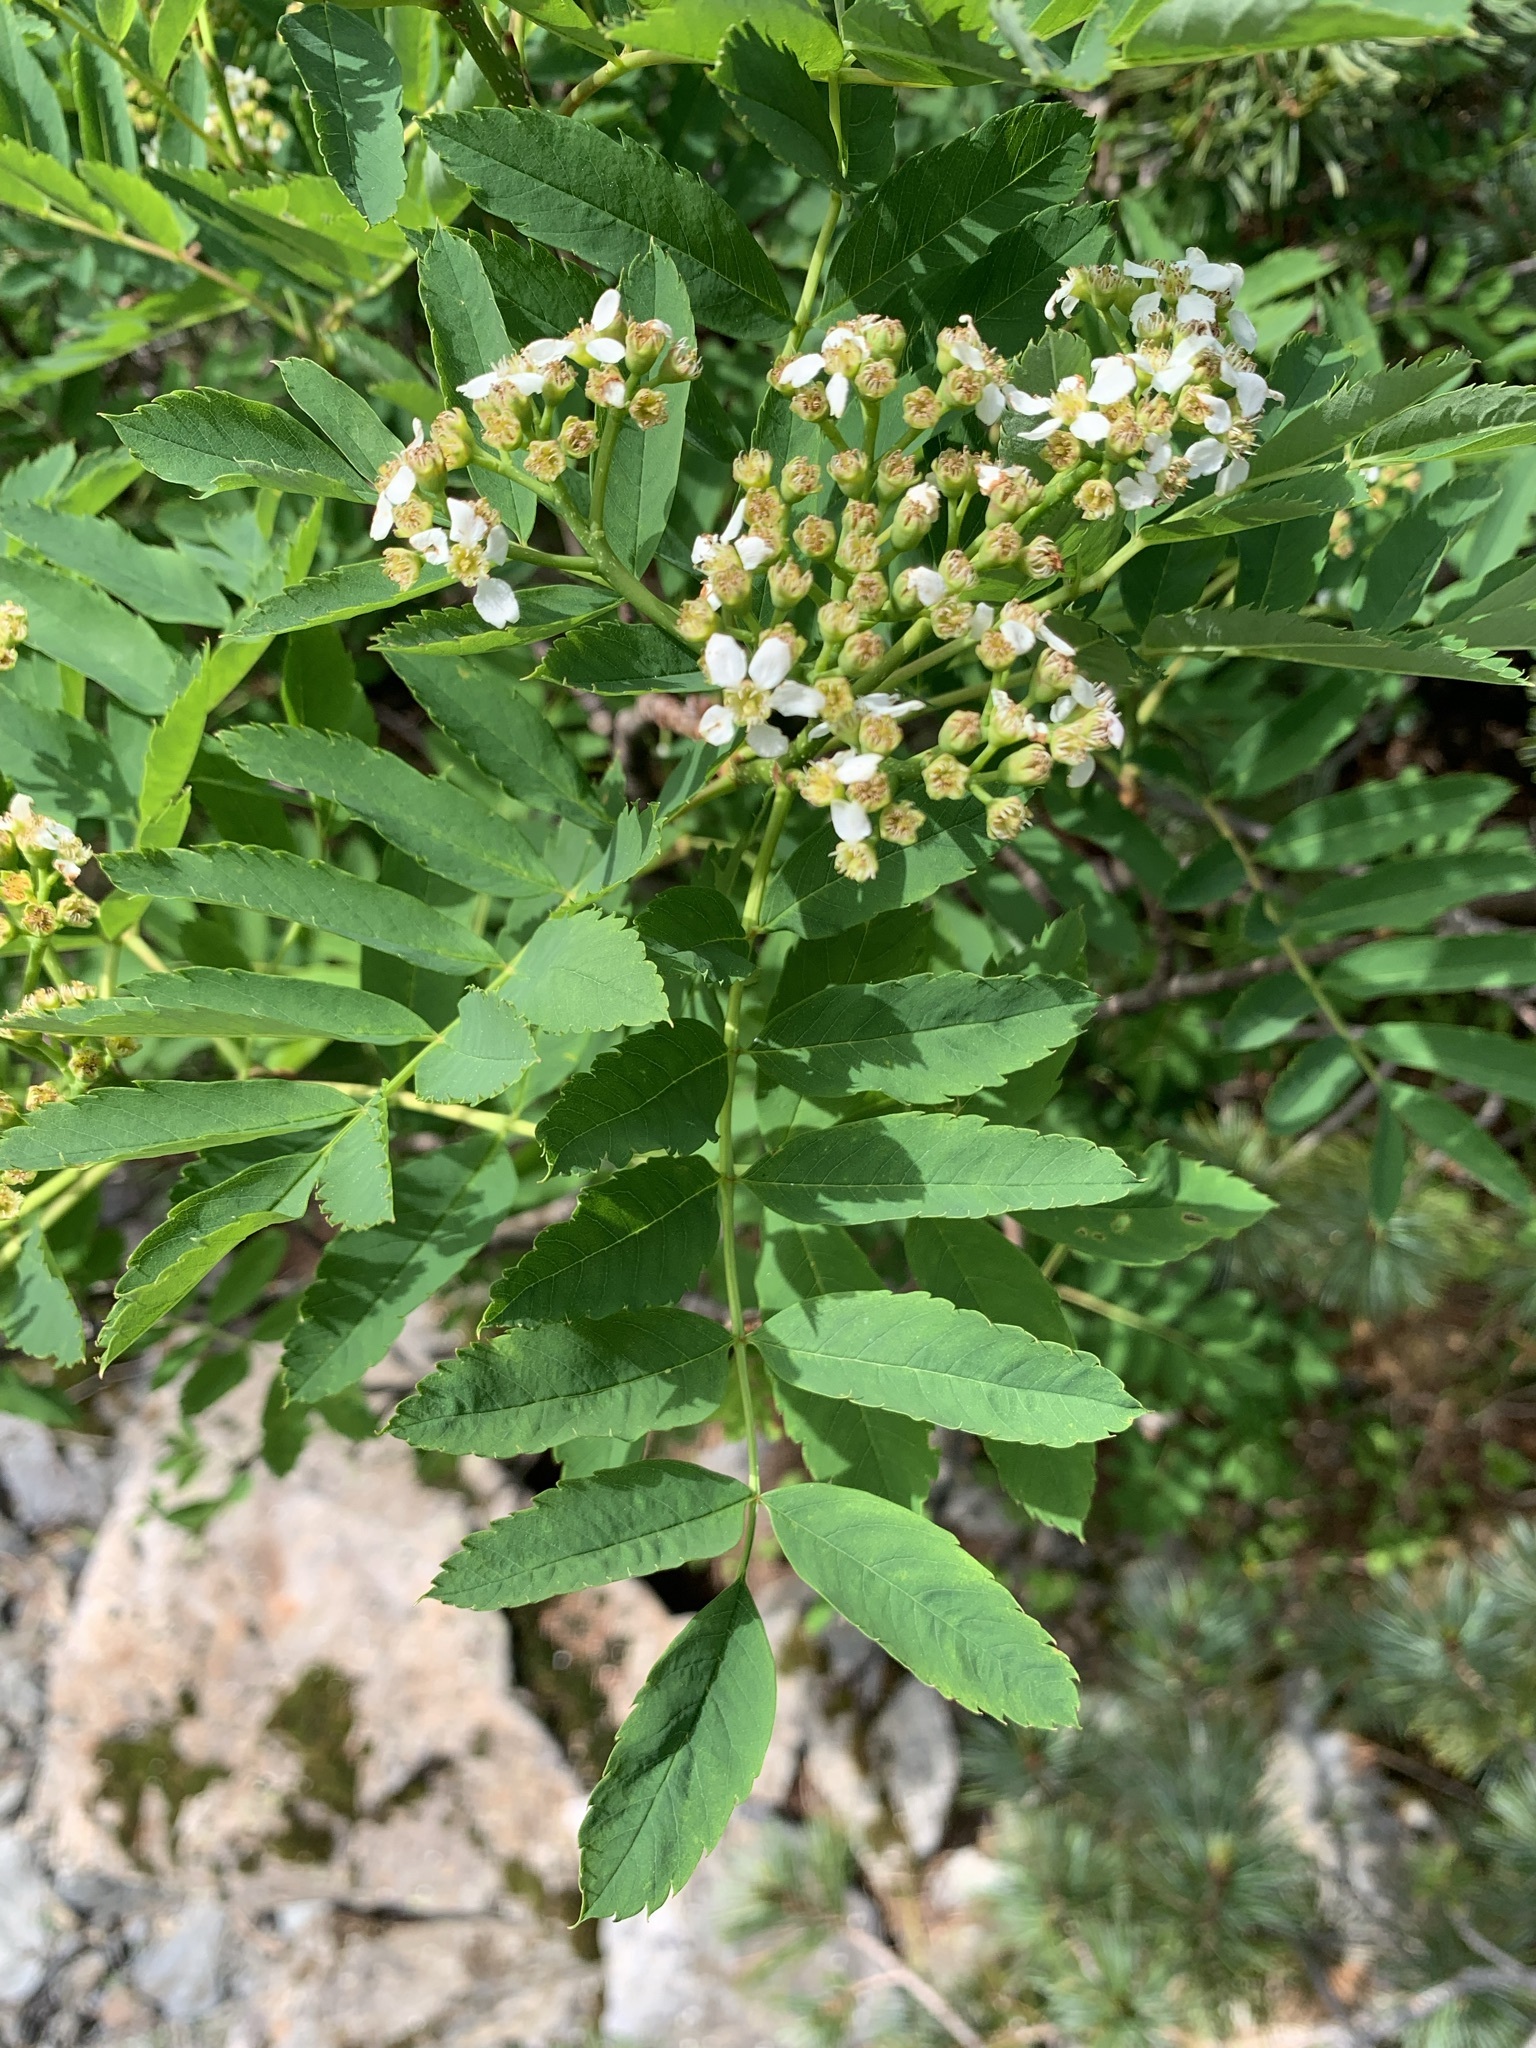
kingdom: Plantae
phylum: Tracheophyta
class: Magnoliopsida
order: Rosales
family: Rosaceae
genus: Sorbus
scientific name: Sorbus sambucifolia
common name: Siberian mountain-ash
